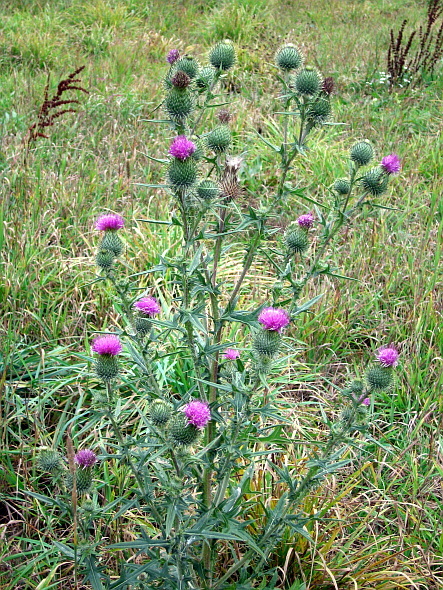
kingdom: Plantae
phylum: Tracheophyta
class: Magnoliopsida
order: Asterales
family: Asteraceae
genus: Cirsium
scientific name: Cirsium vulgare
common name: Bull thistle
